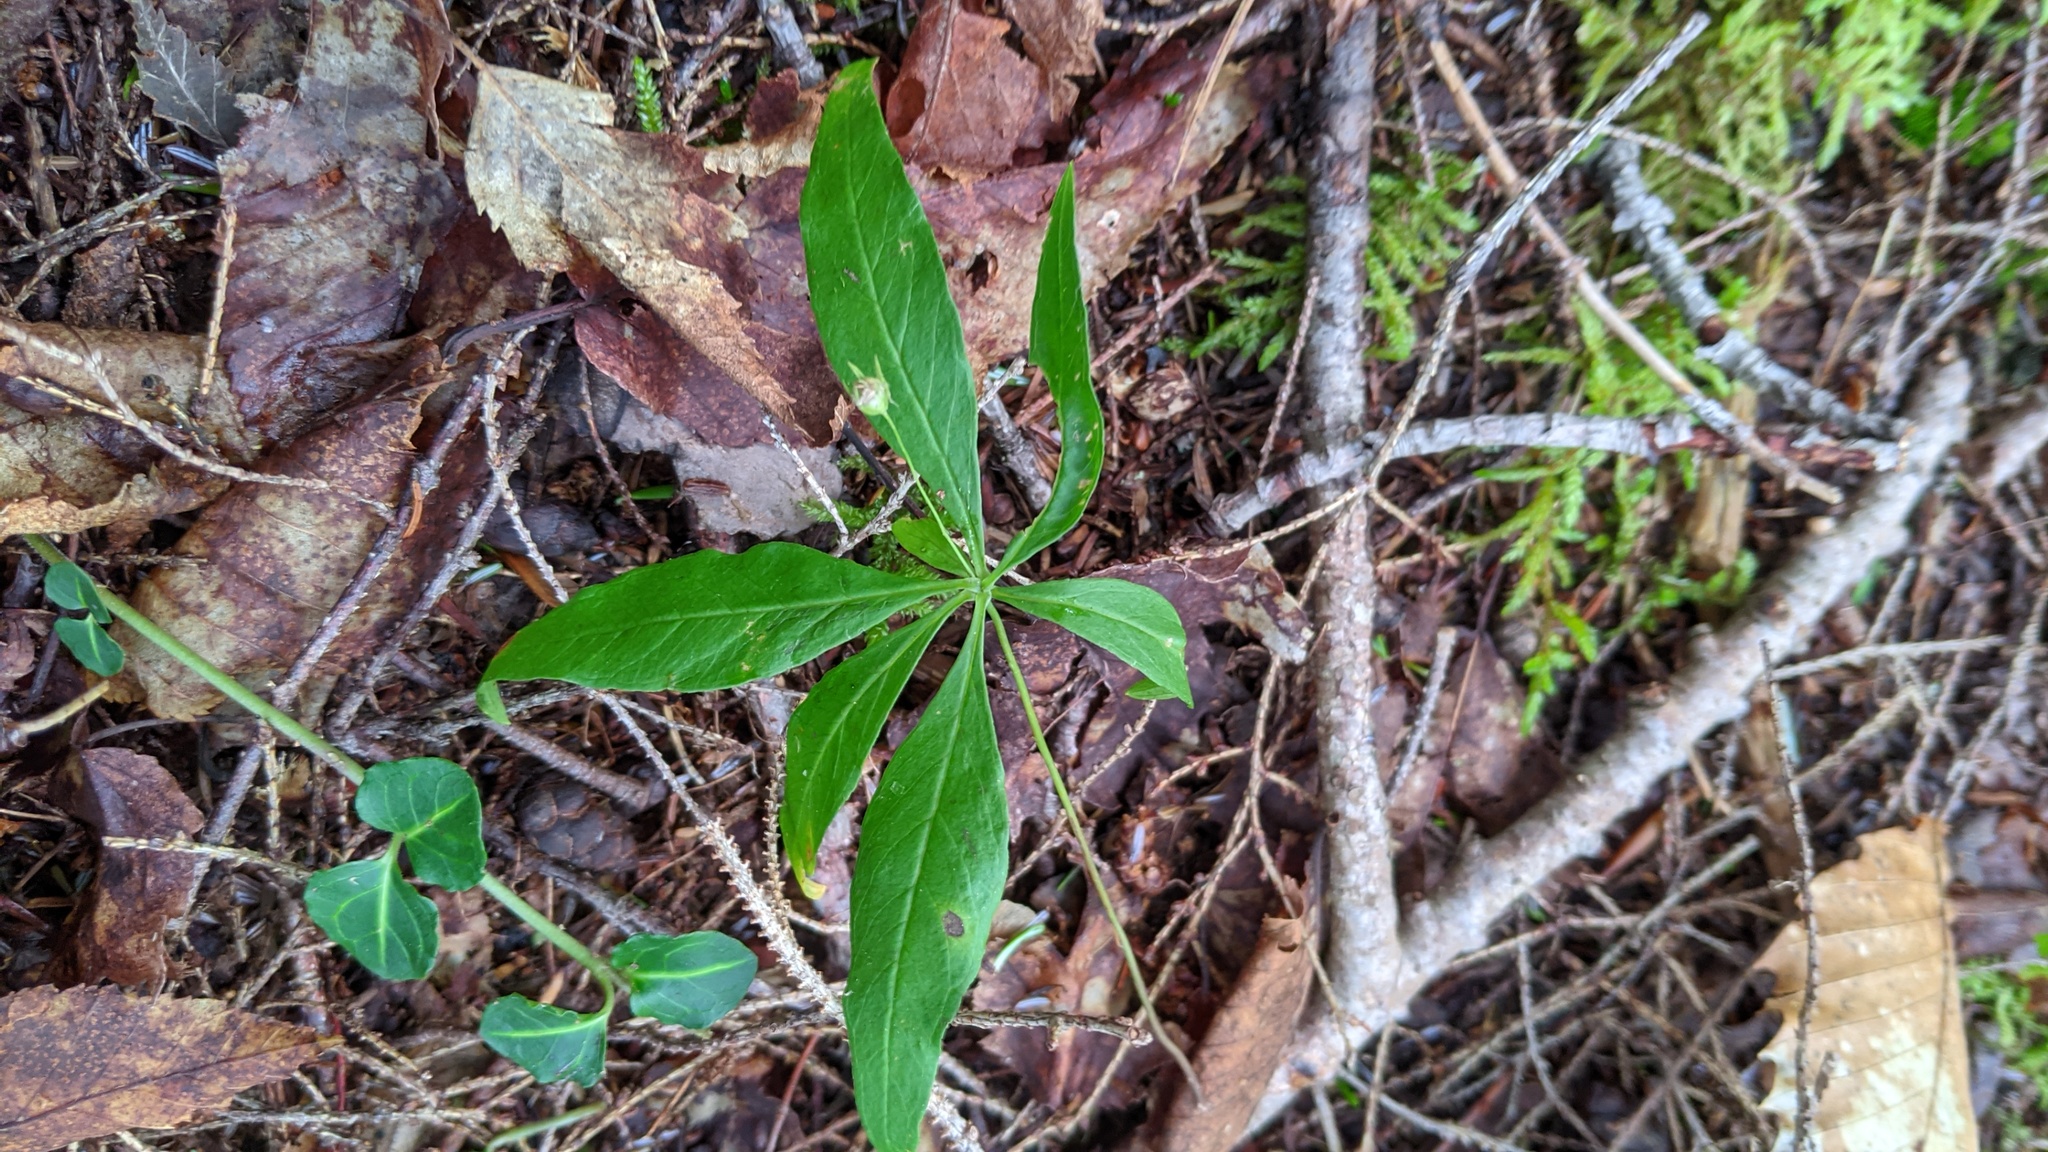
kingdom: Plantae
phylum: Tracheophyta
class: Magnoliopsida
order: Ericales
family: Primulaceae
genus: Lysimachia
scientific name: Lysimachia borealis
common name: American starflower
